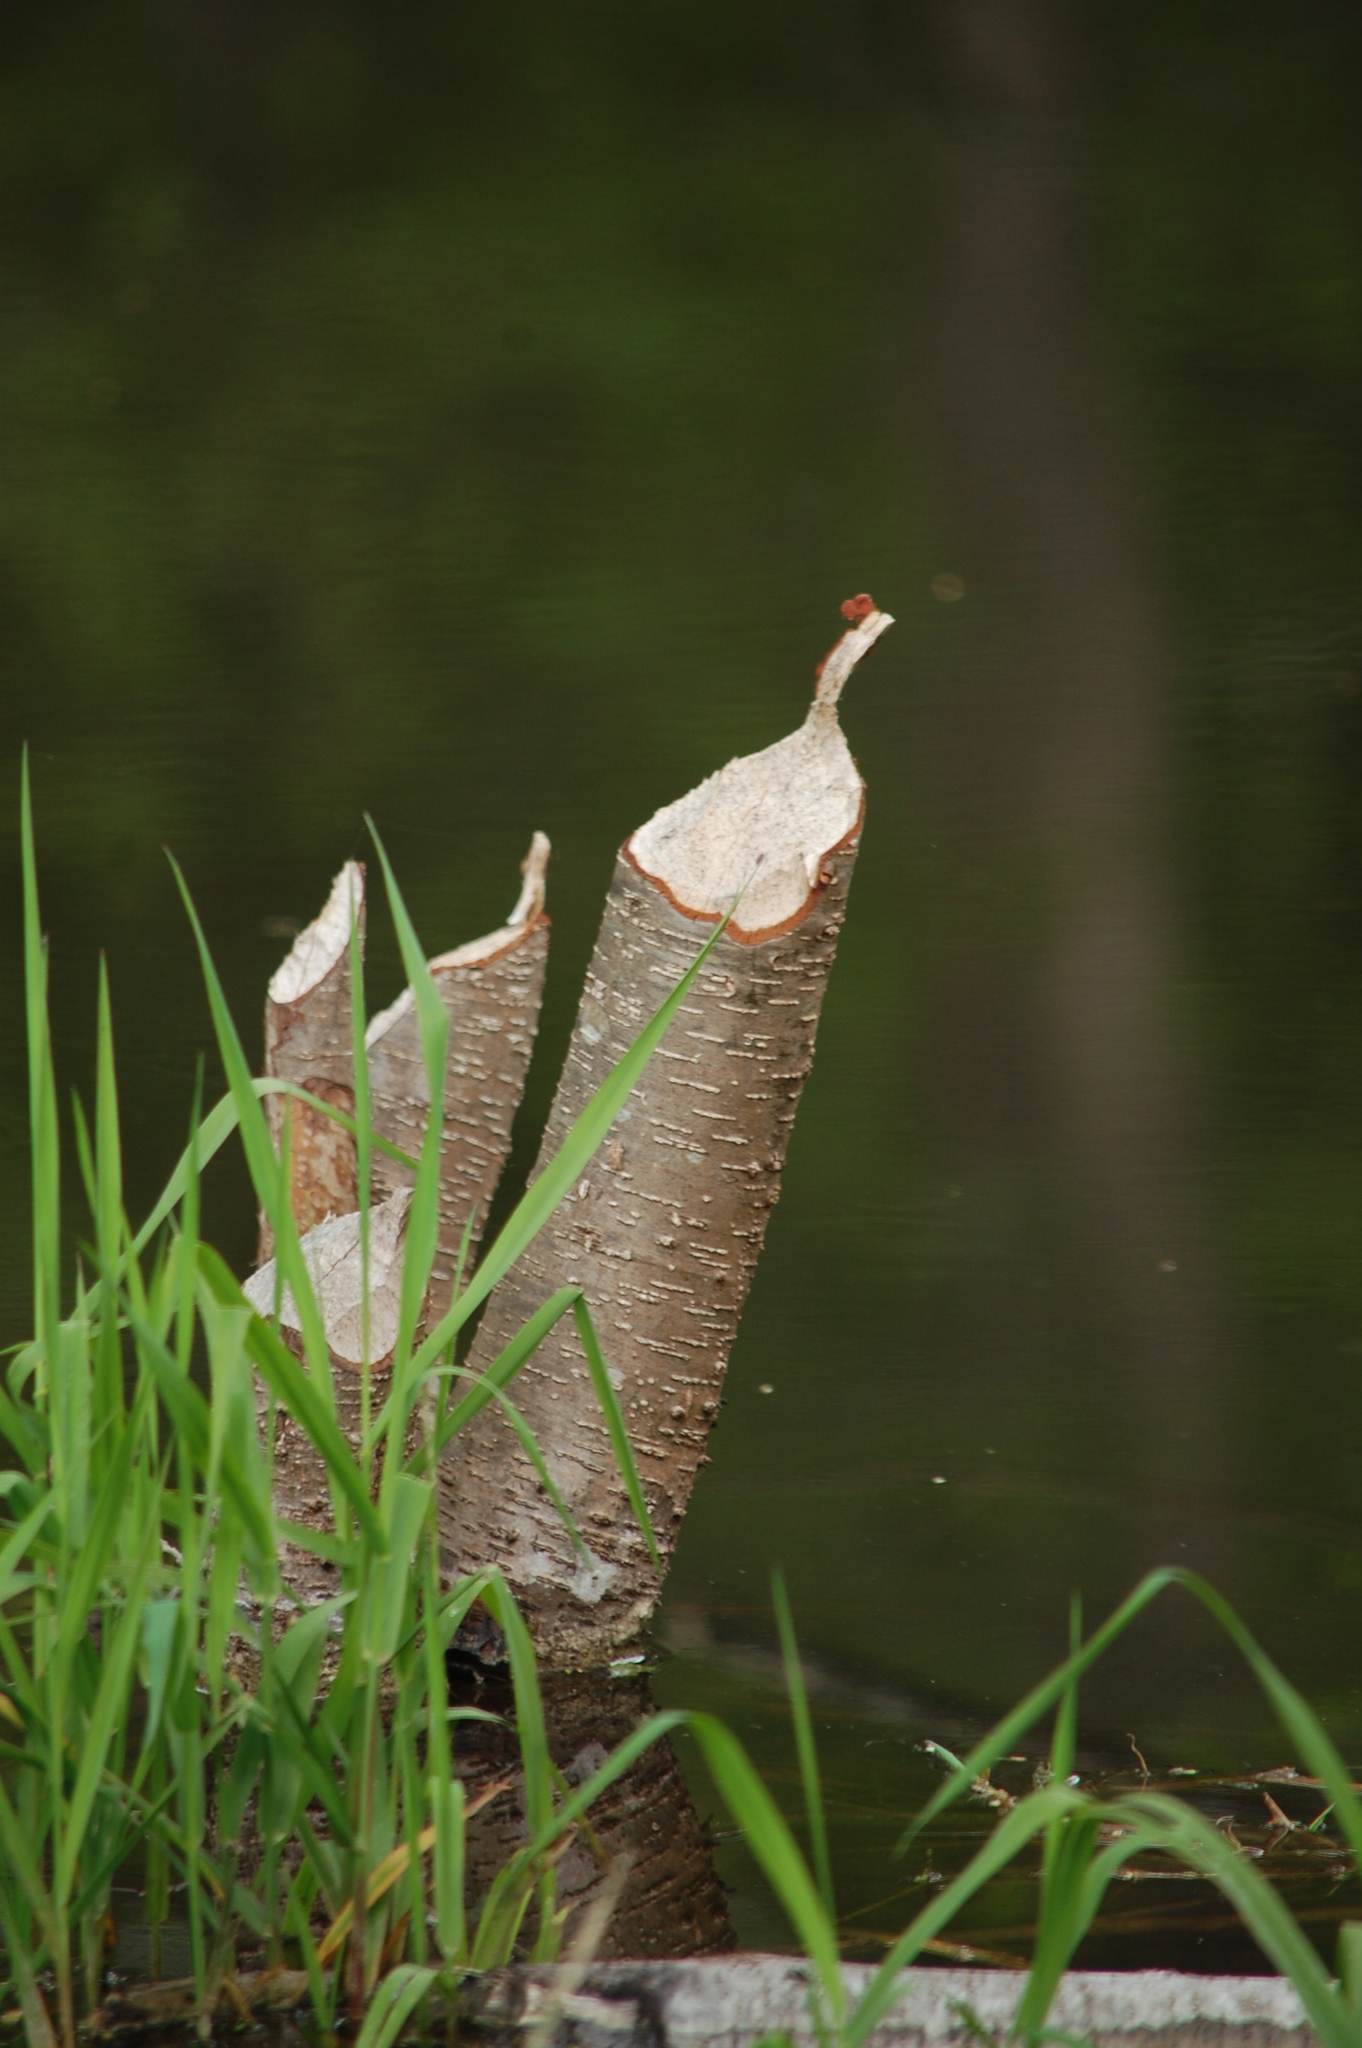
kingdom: Animalia
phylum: Chordata
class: Mammalia
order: Rodentia
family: Castoridae
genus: Castor
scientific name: Castor fiber
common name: Eurasian beaver
